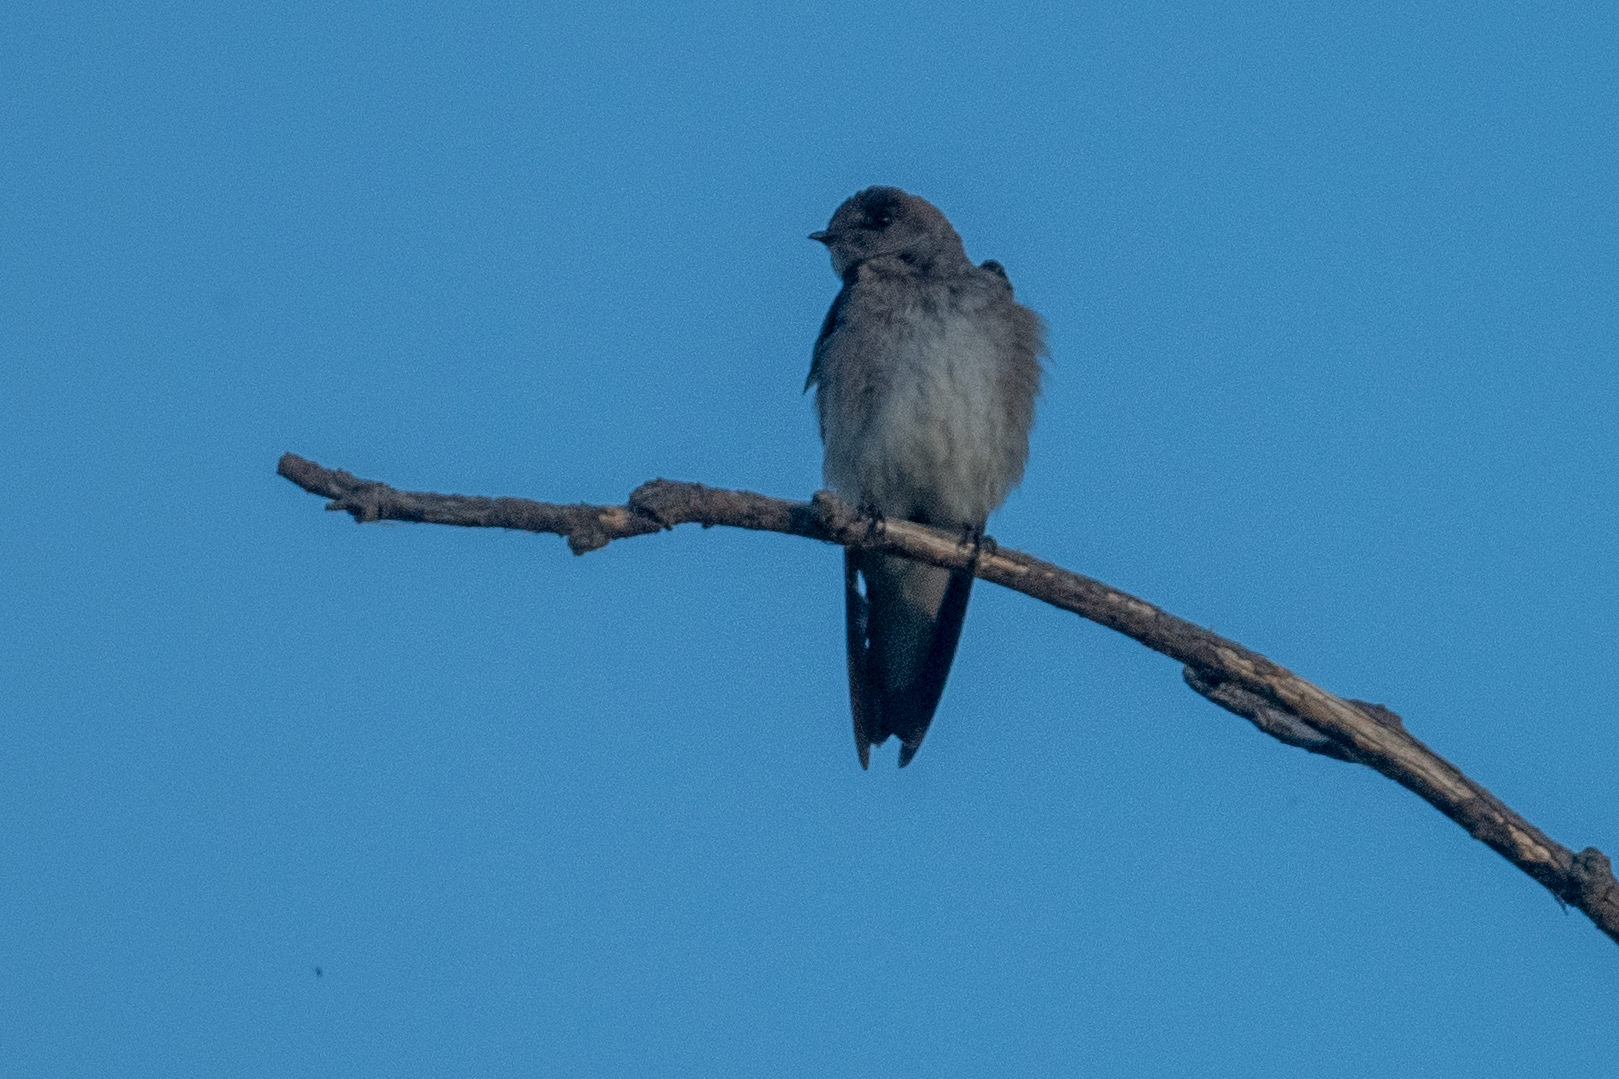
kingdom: Animalia
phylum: Chordata
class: Aves
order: Passeriformes
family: Hirundinidae
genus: Stelgidopteryx
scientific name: Stelgidopteryx serripennis
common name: Northern rough-winged swallow
